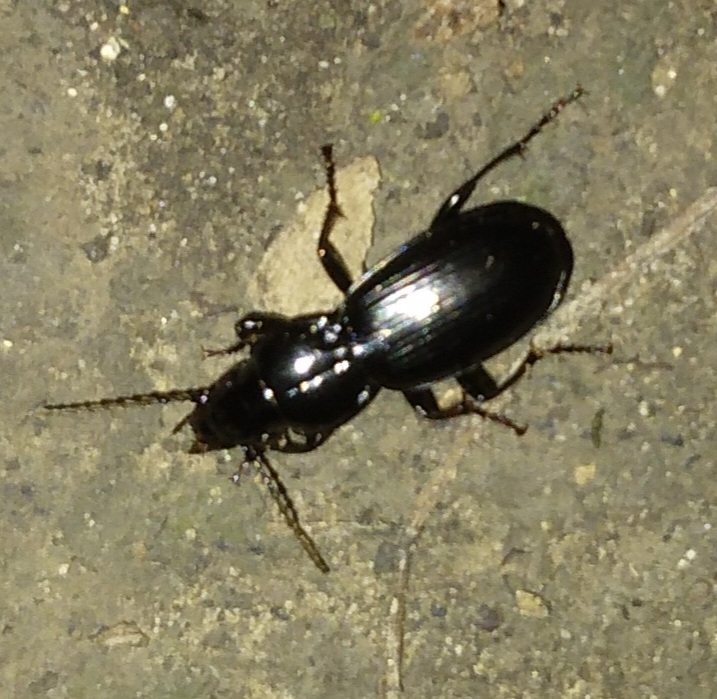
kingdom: Animalia
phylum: Arthropoda
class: Insecta
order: Coleoptera
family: Carabidae
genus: Pterostichus
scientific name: Pterostichus madidus
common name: Black clock
